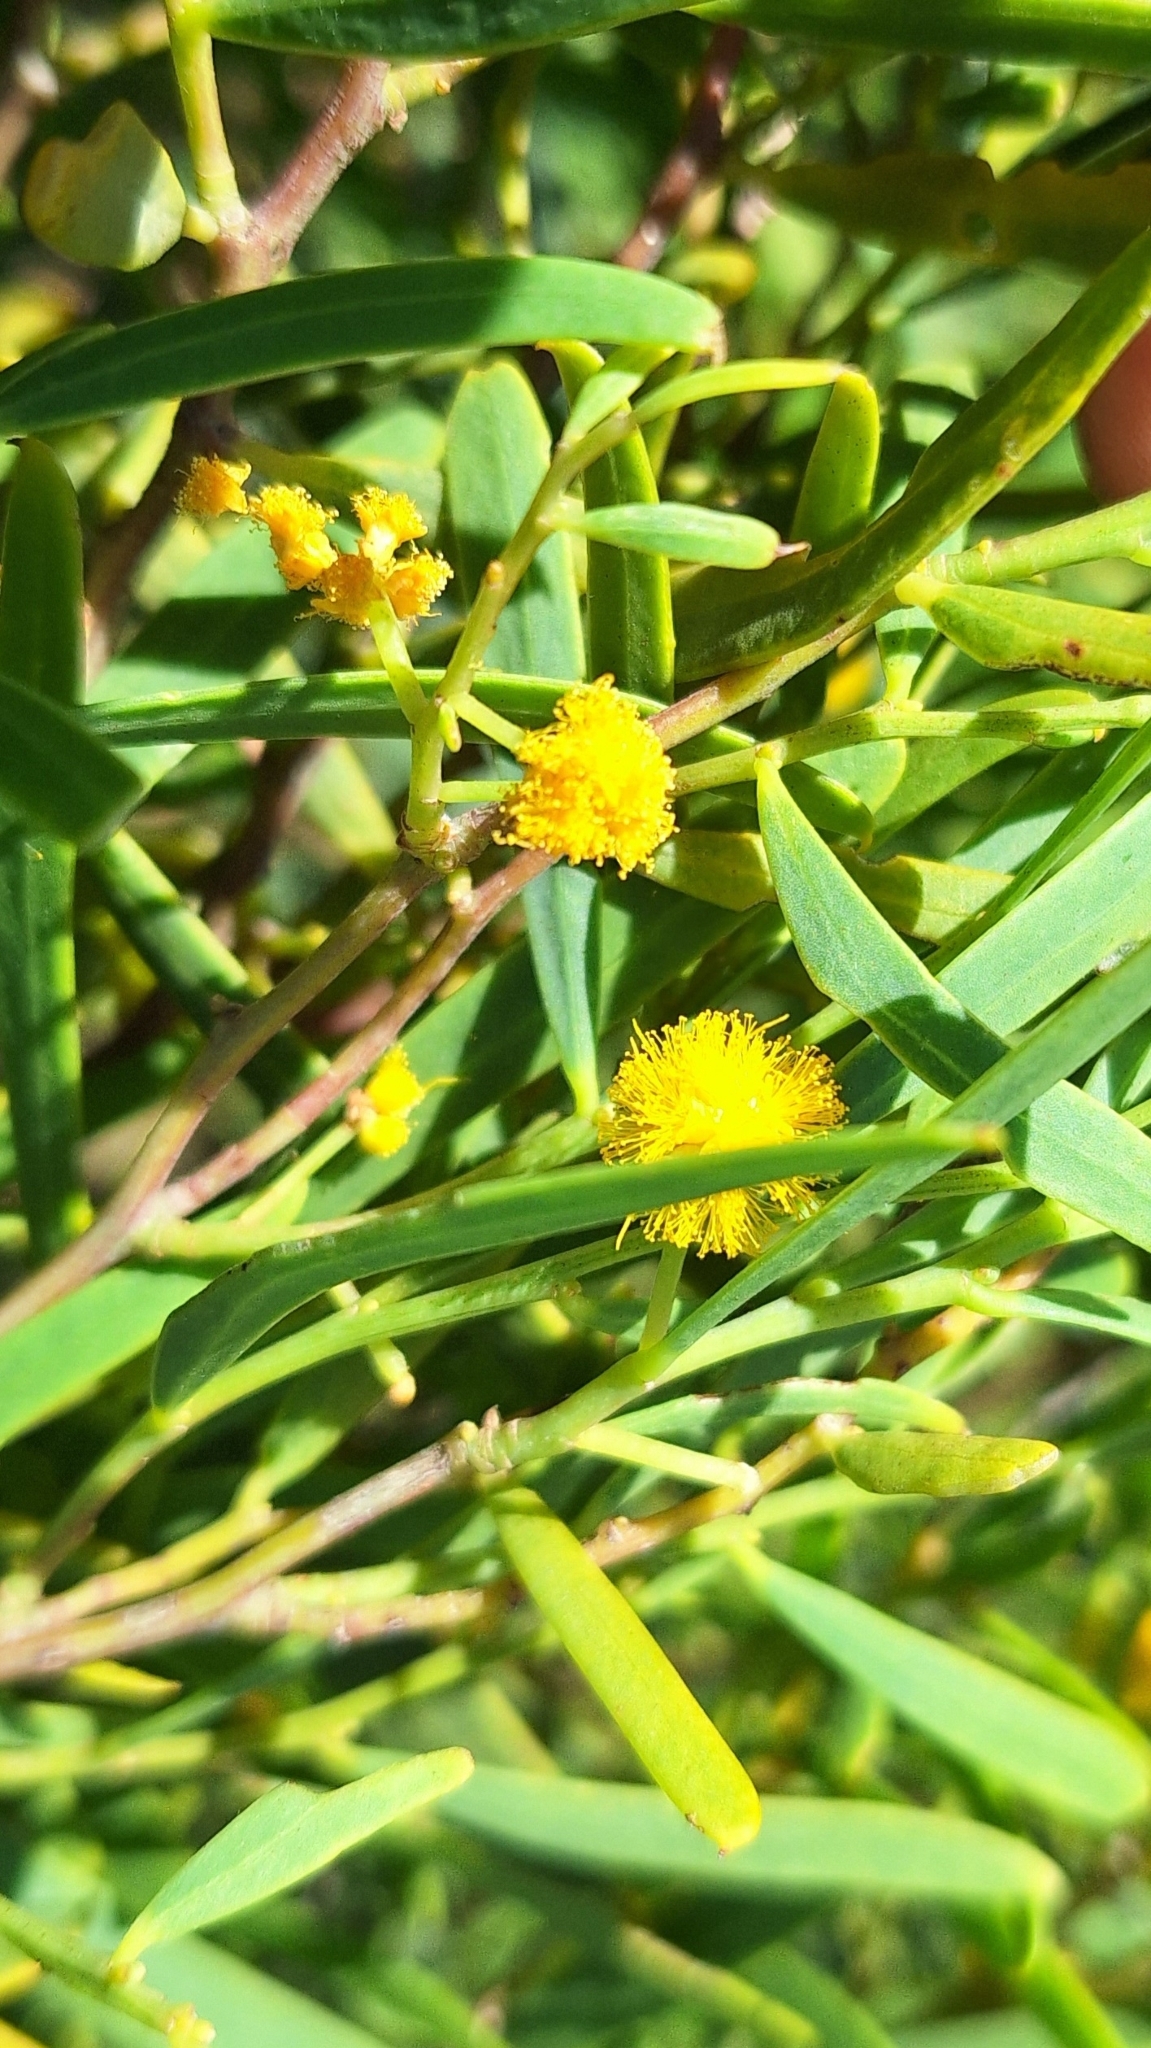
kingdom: Plantae
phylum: Tracheophyta
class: Magnoliopsida
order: Fabales
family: Fabaceae
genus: Acacia
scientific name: Acacia ligulata
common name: Dune wattle
